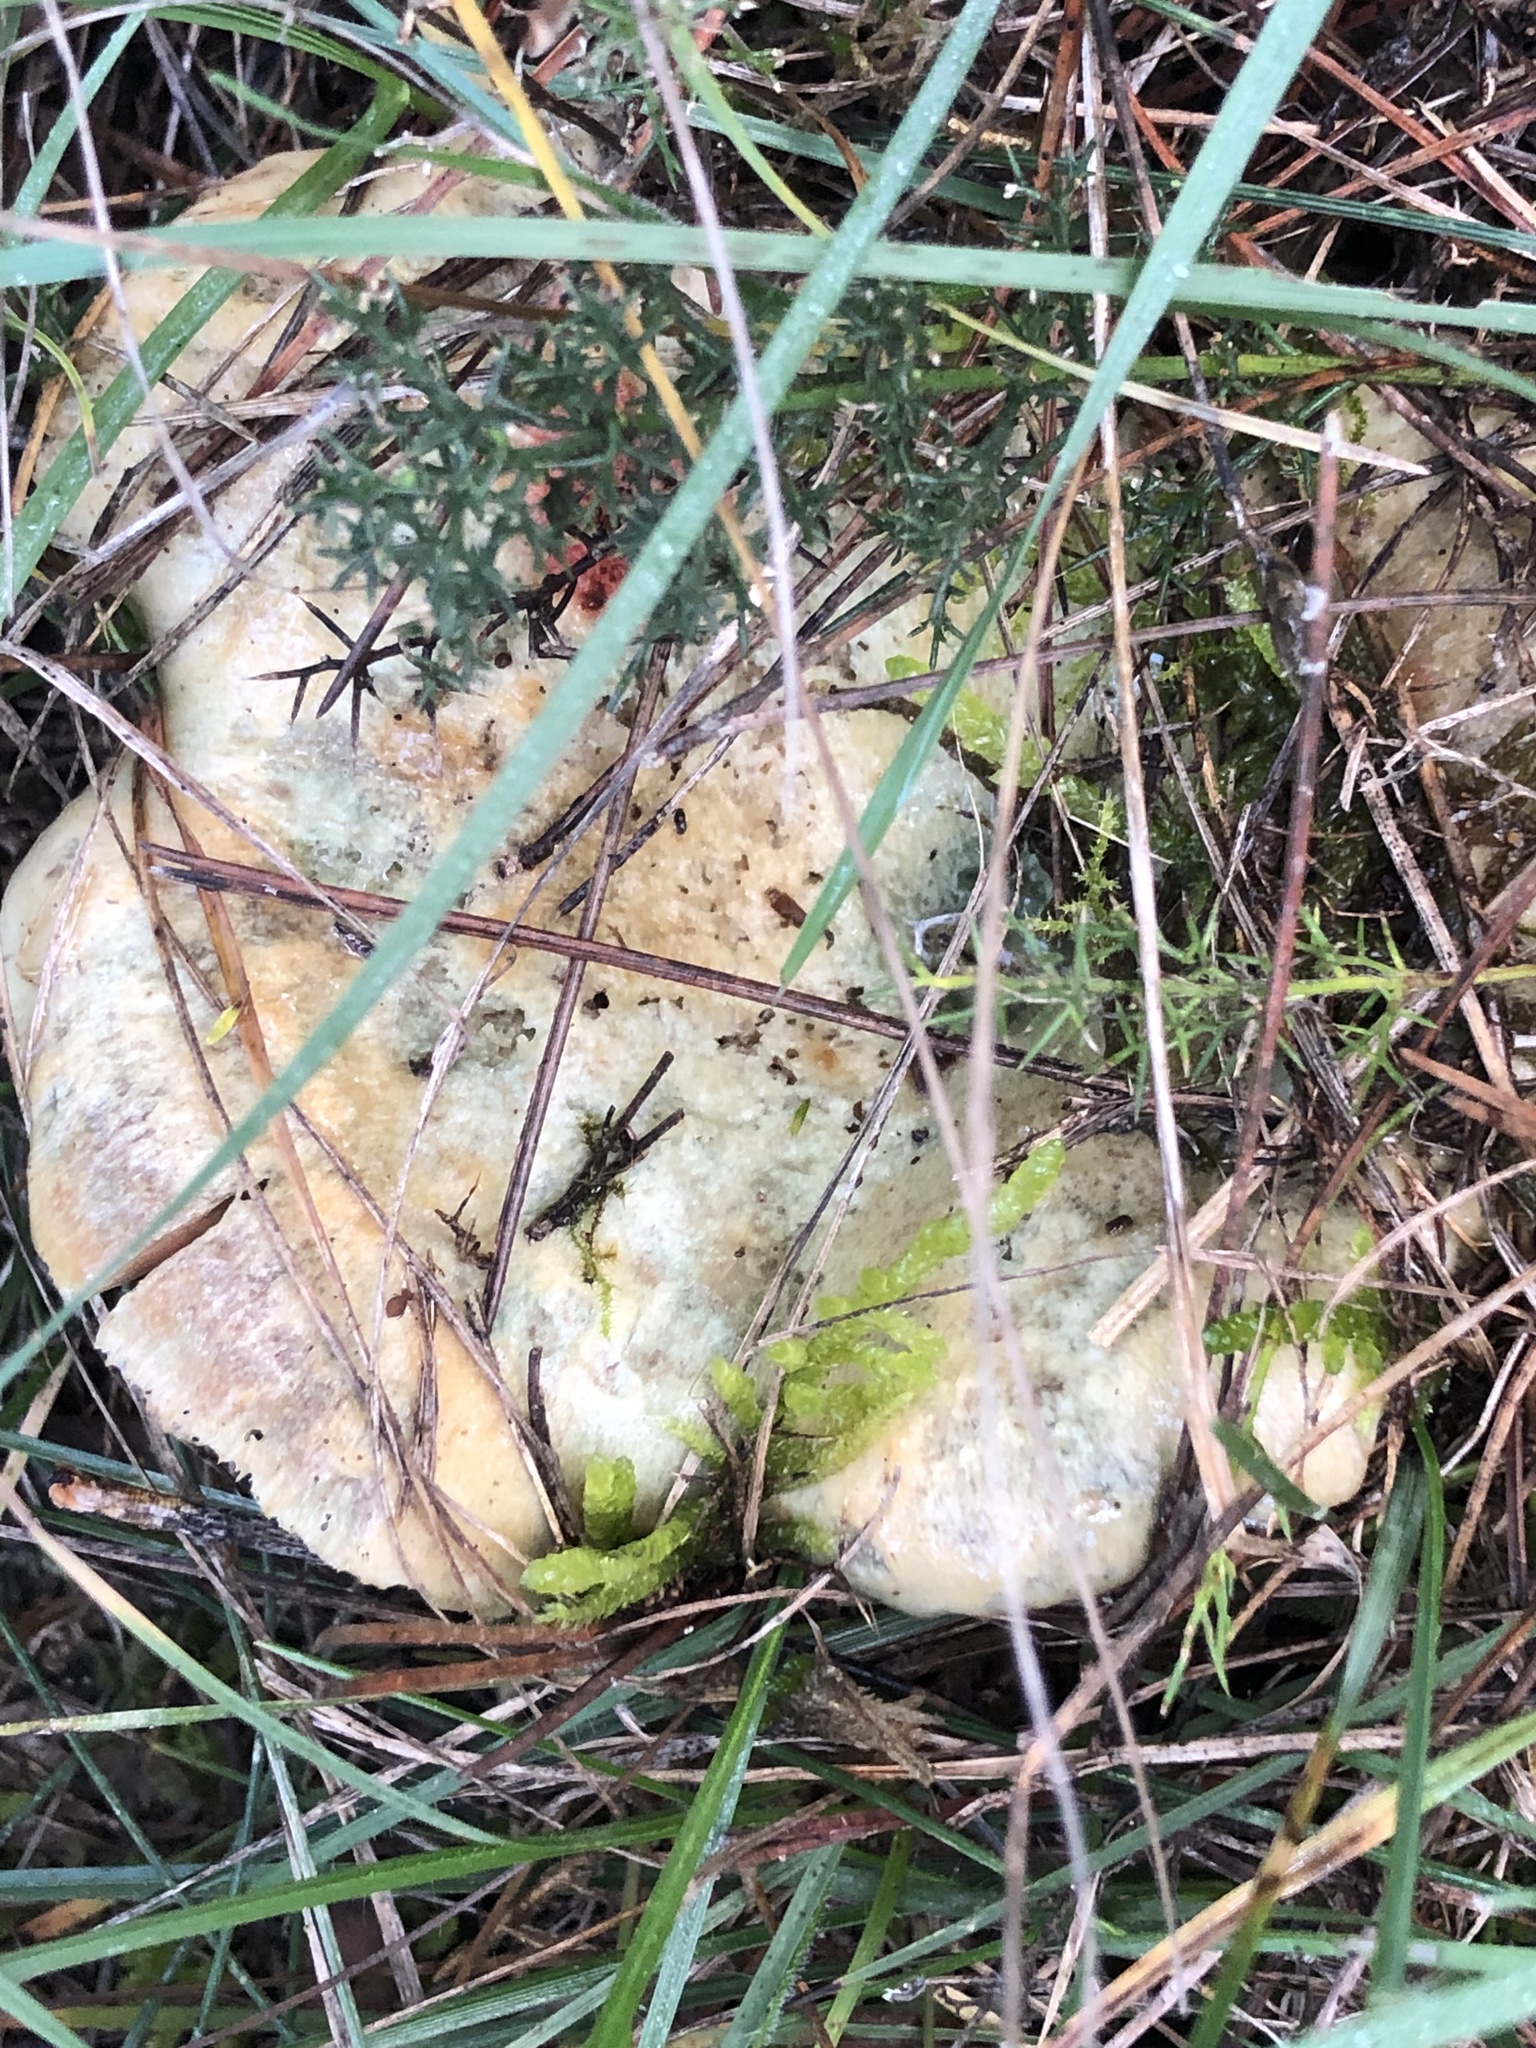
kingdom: Fungi
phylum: Basidiomycota
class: Agaricomycetes
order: Russulales
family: Russulaceae
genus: Lactarius
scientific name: Lactarius sanguifluus
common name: Bloody milkcap
